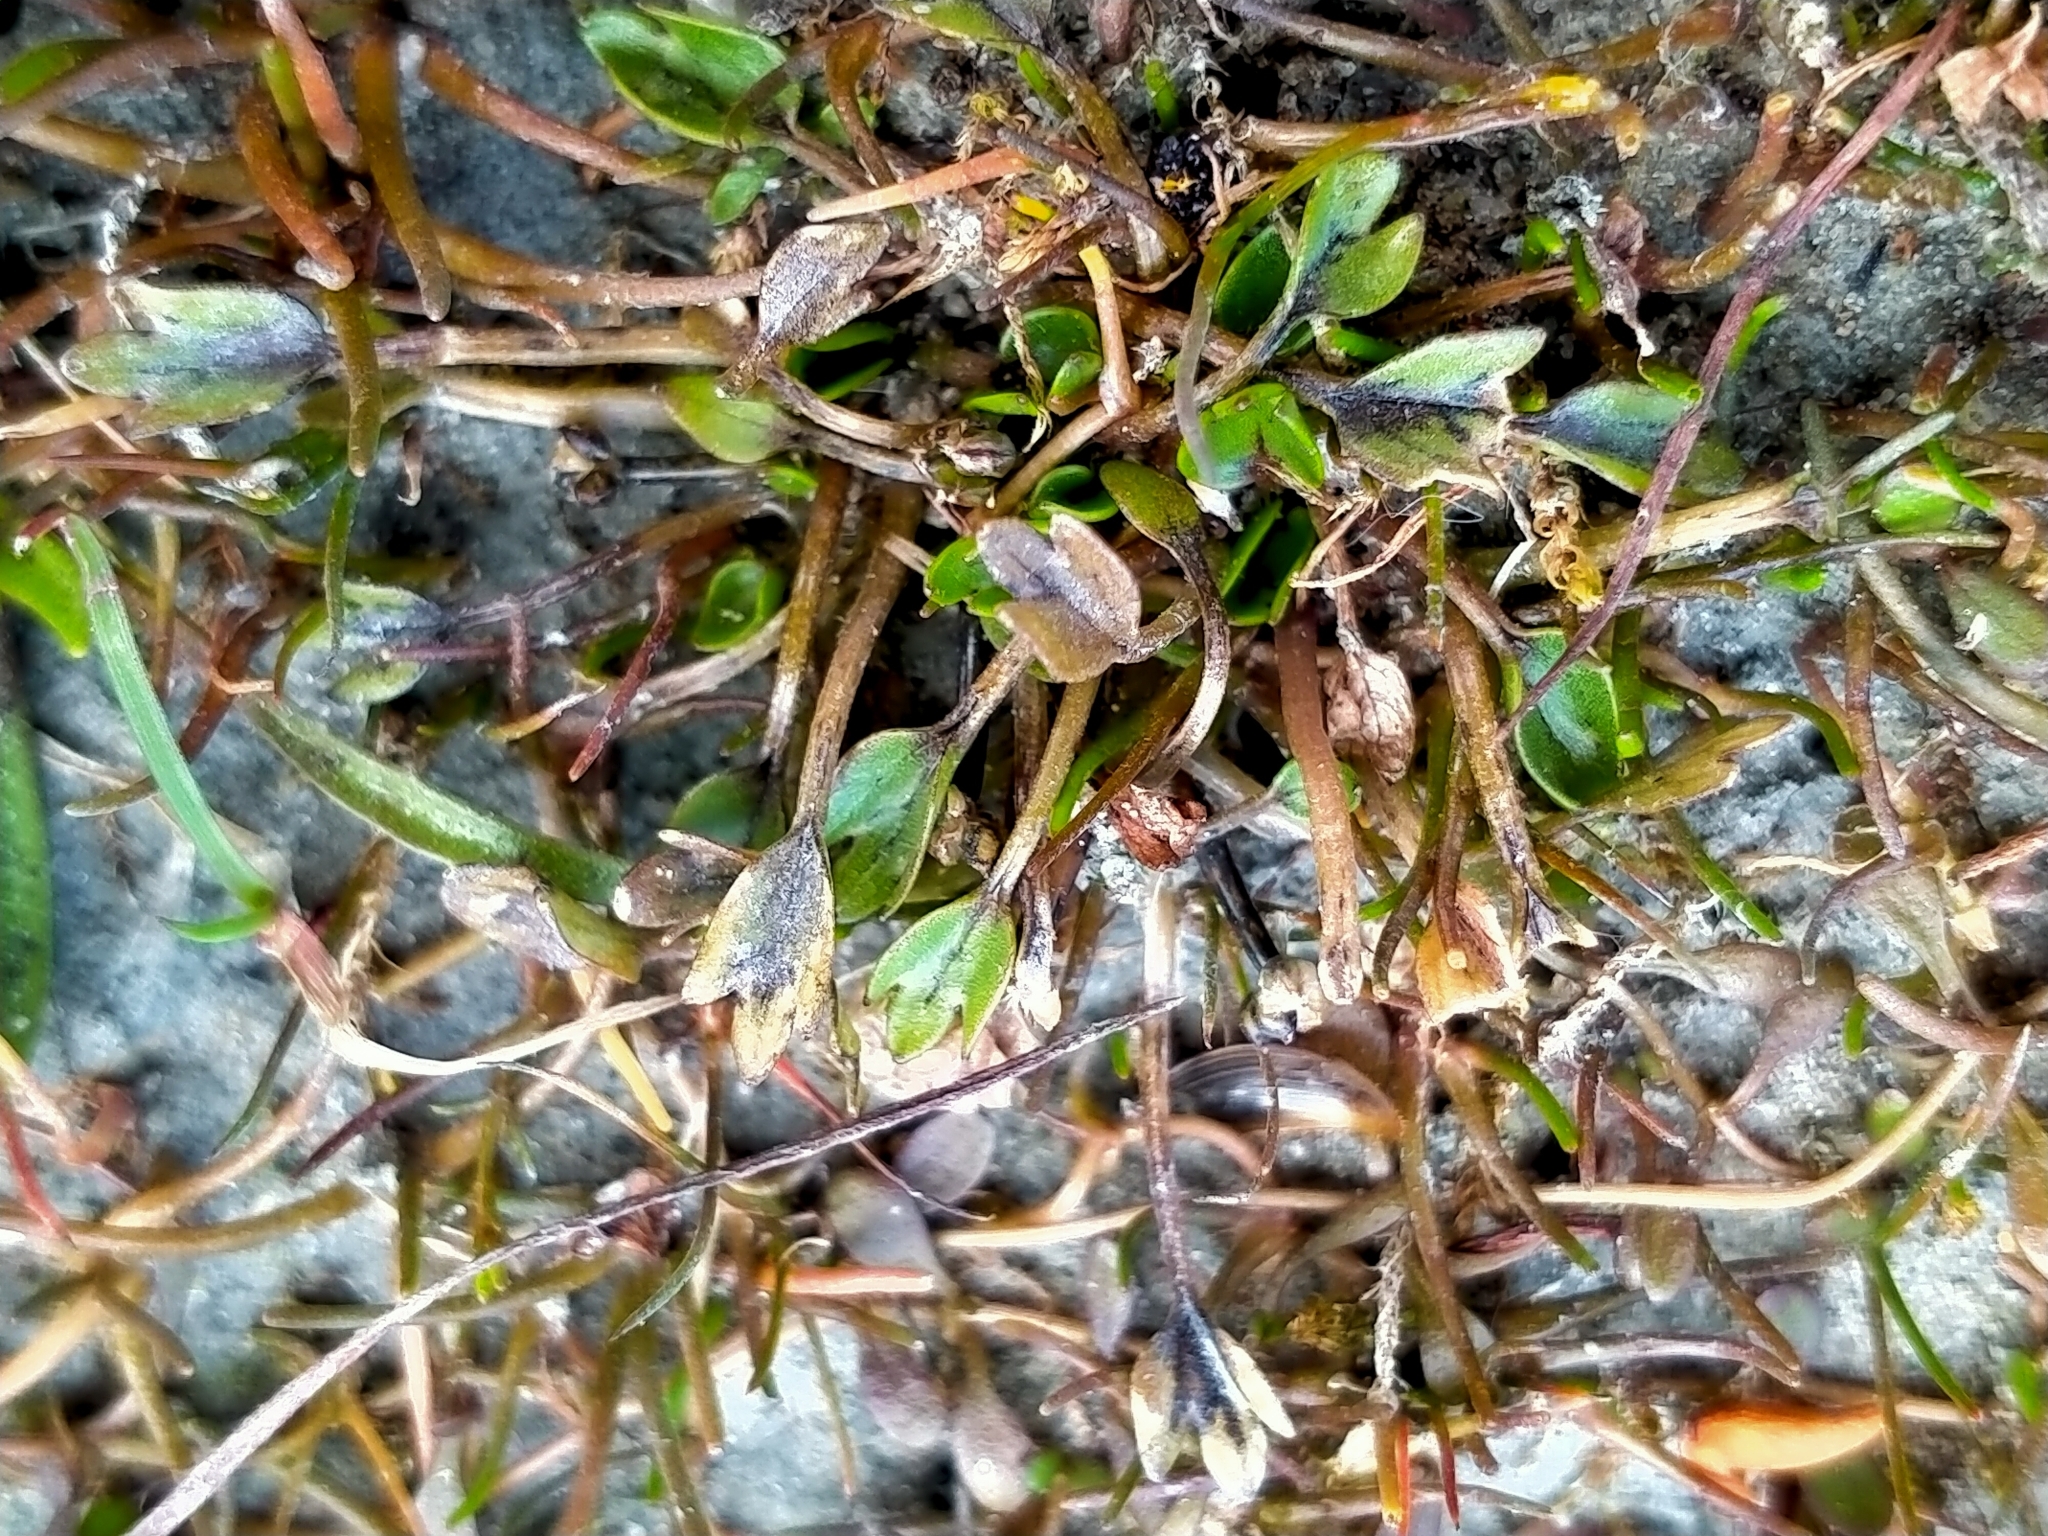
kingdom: Plantae
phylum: Tracheophyta
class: Magnoliopsida
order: Ranunculales
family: Ranunculaceae
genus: Ranunculus
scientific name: Ranunculus maculatus
